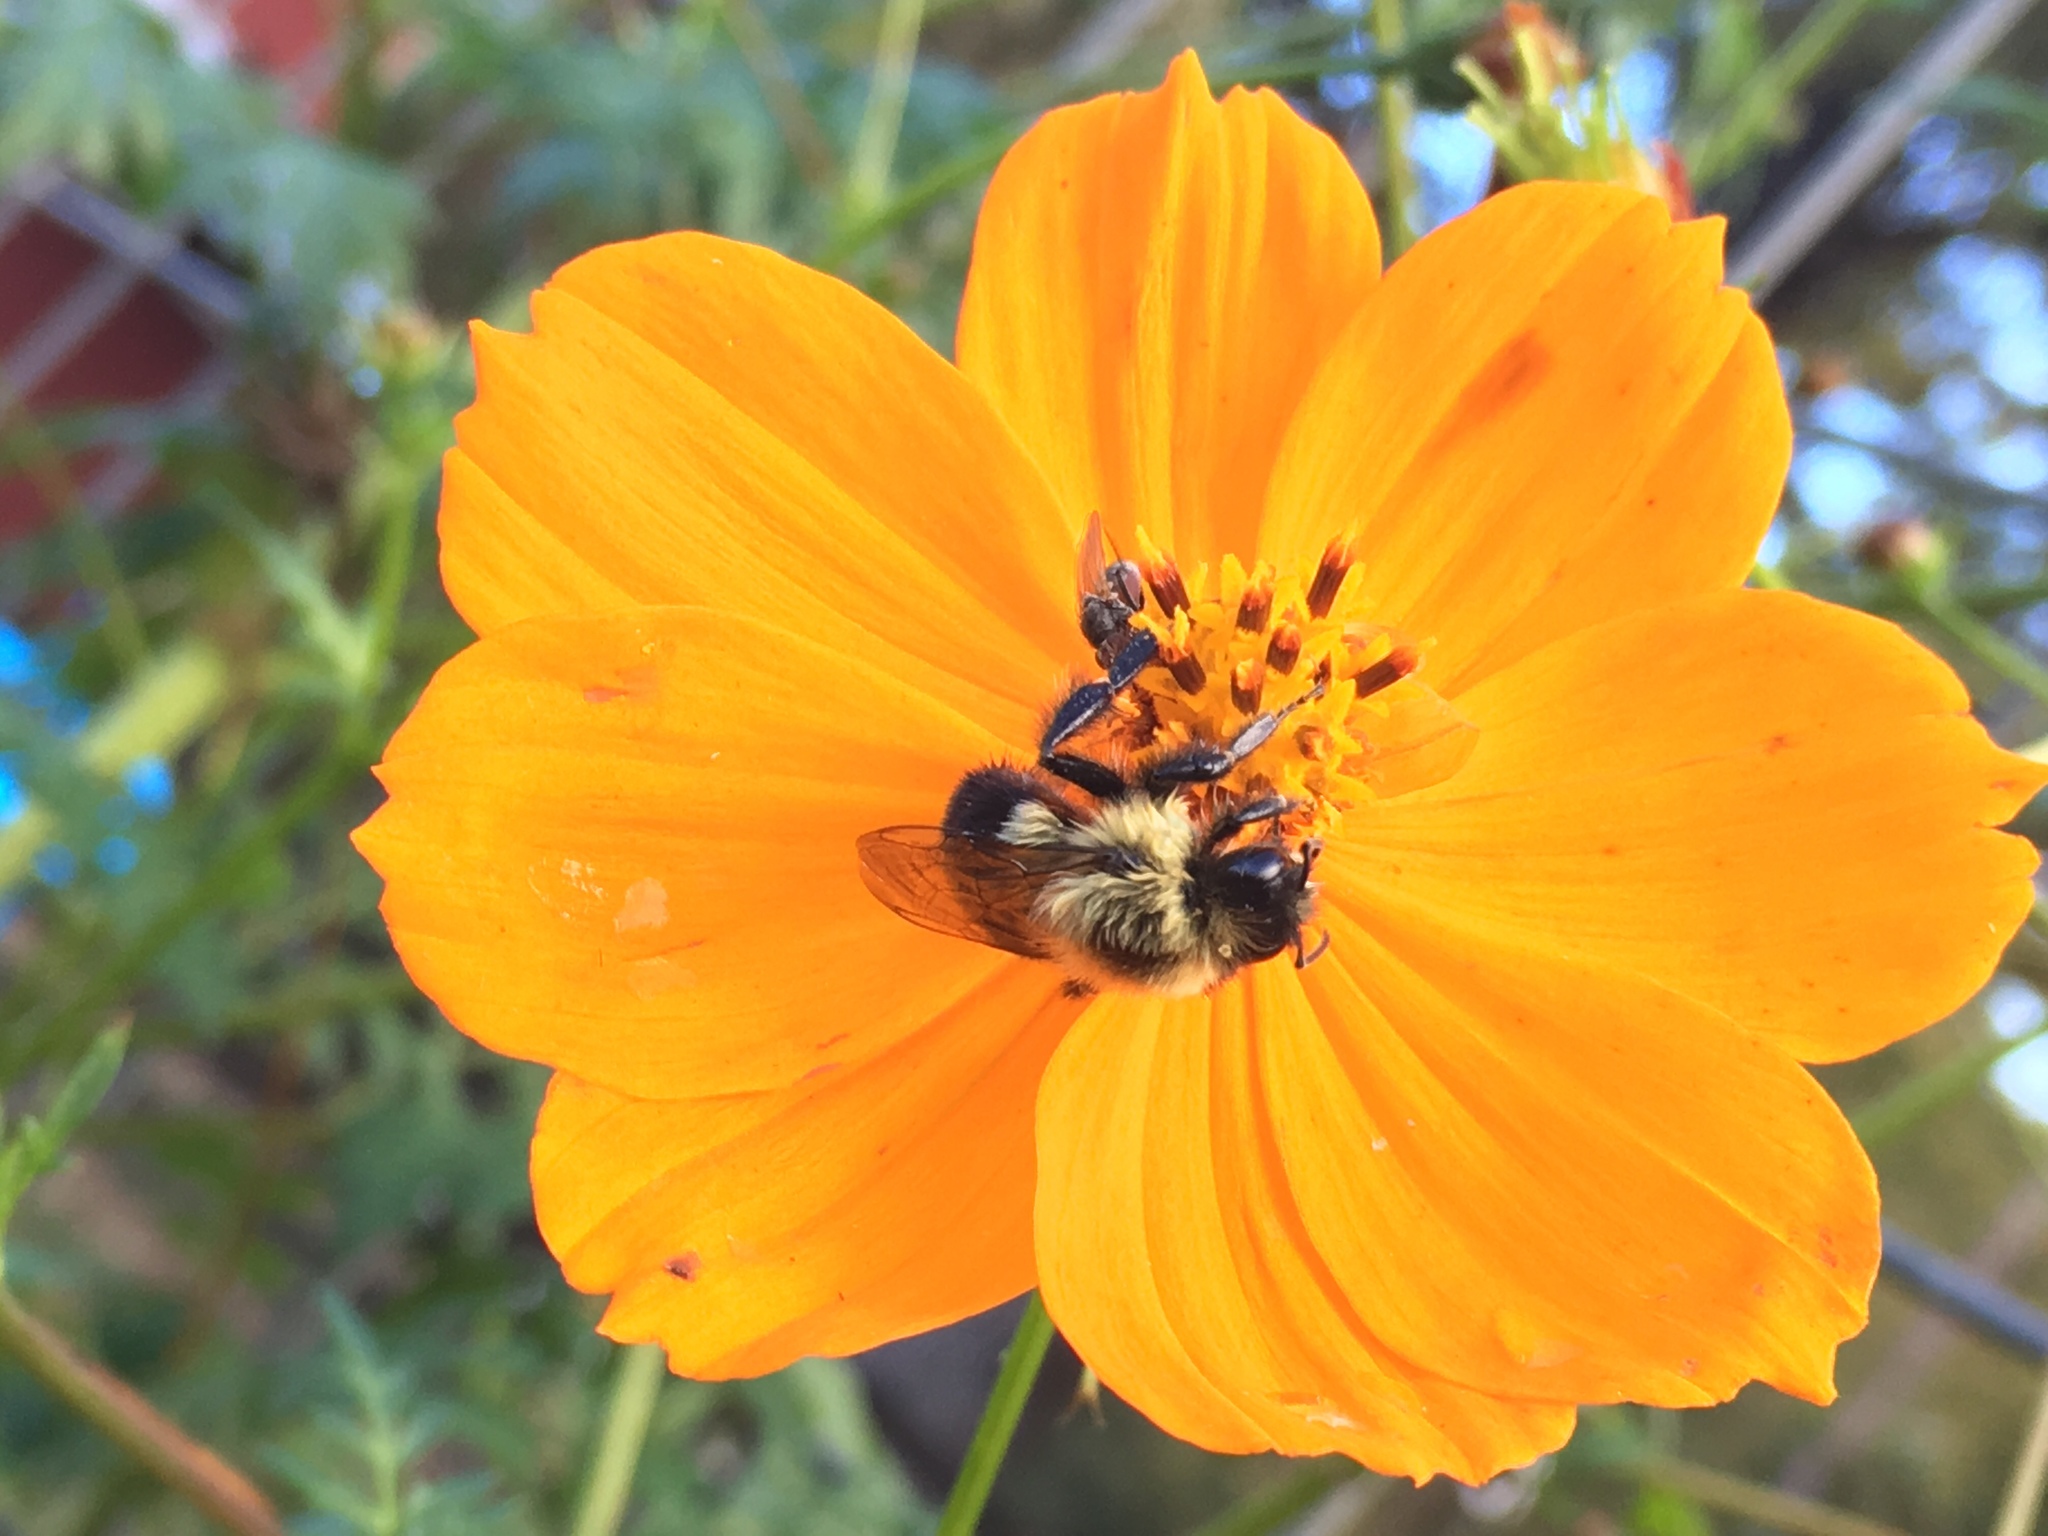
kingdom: Animalia
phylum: Arthropoda
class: Insecta
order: Hymenoptera
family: Apidae
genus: Bombus
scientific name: Bombus impatiens
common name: Common eastern bumble bee
